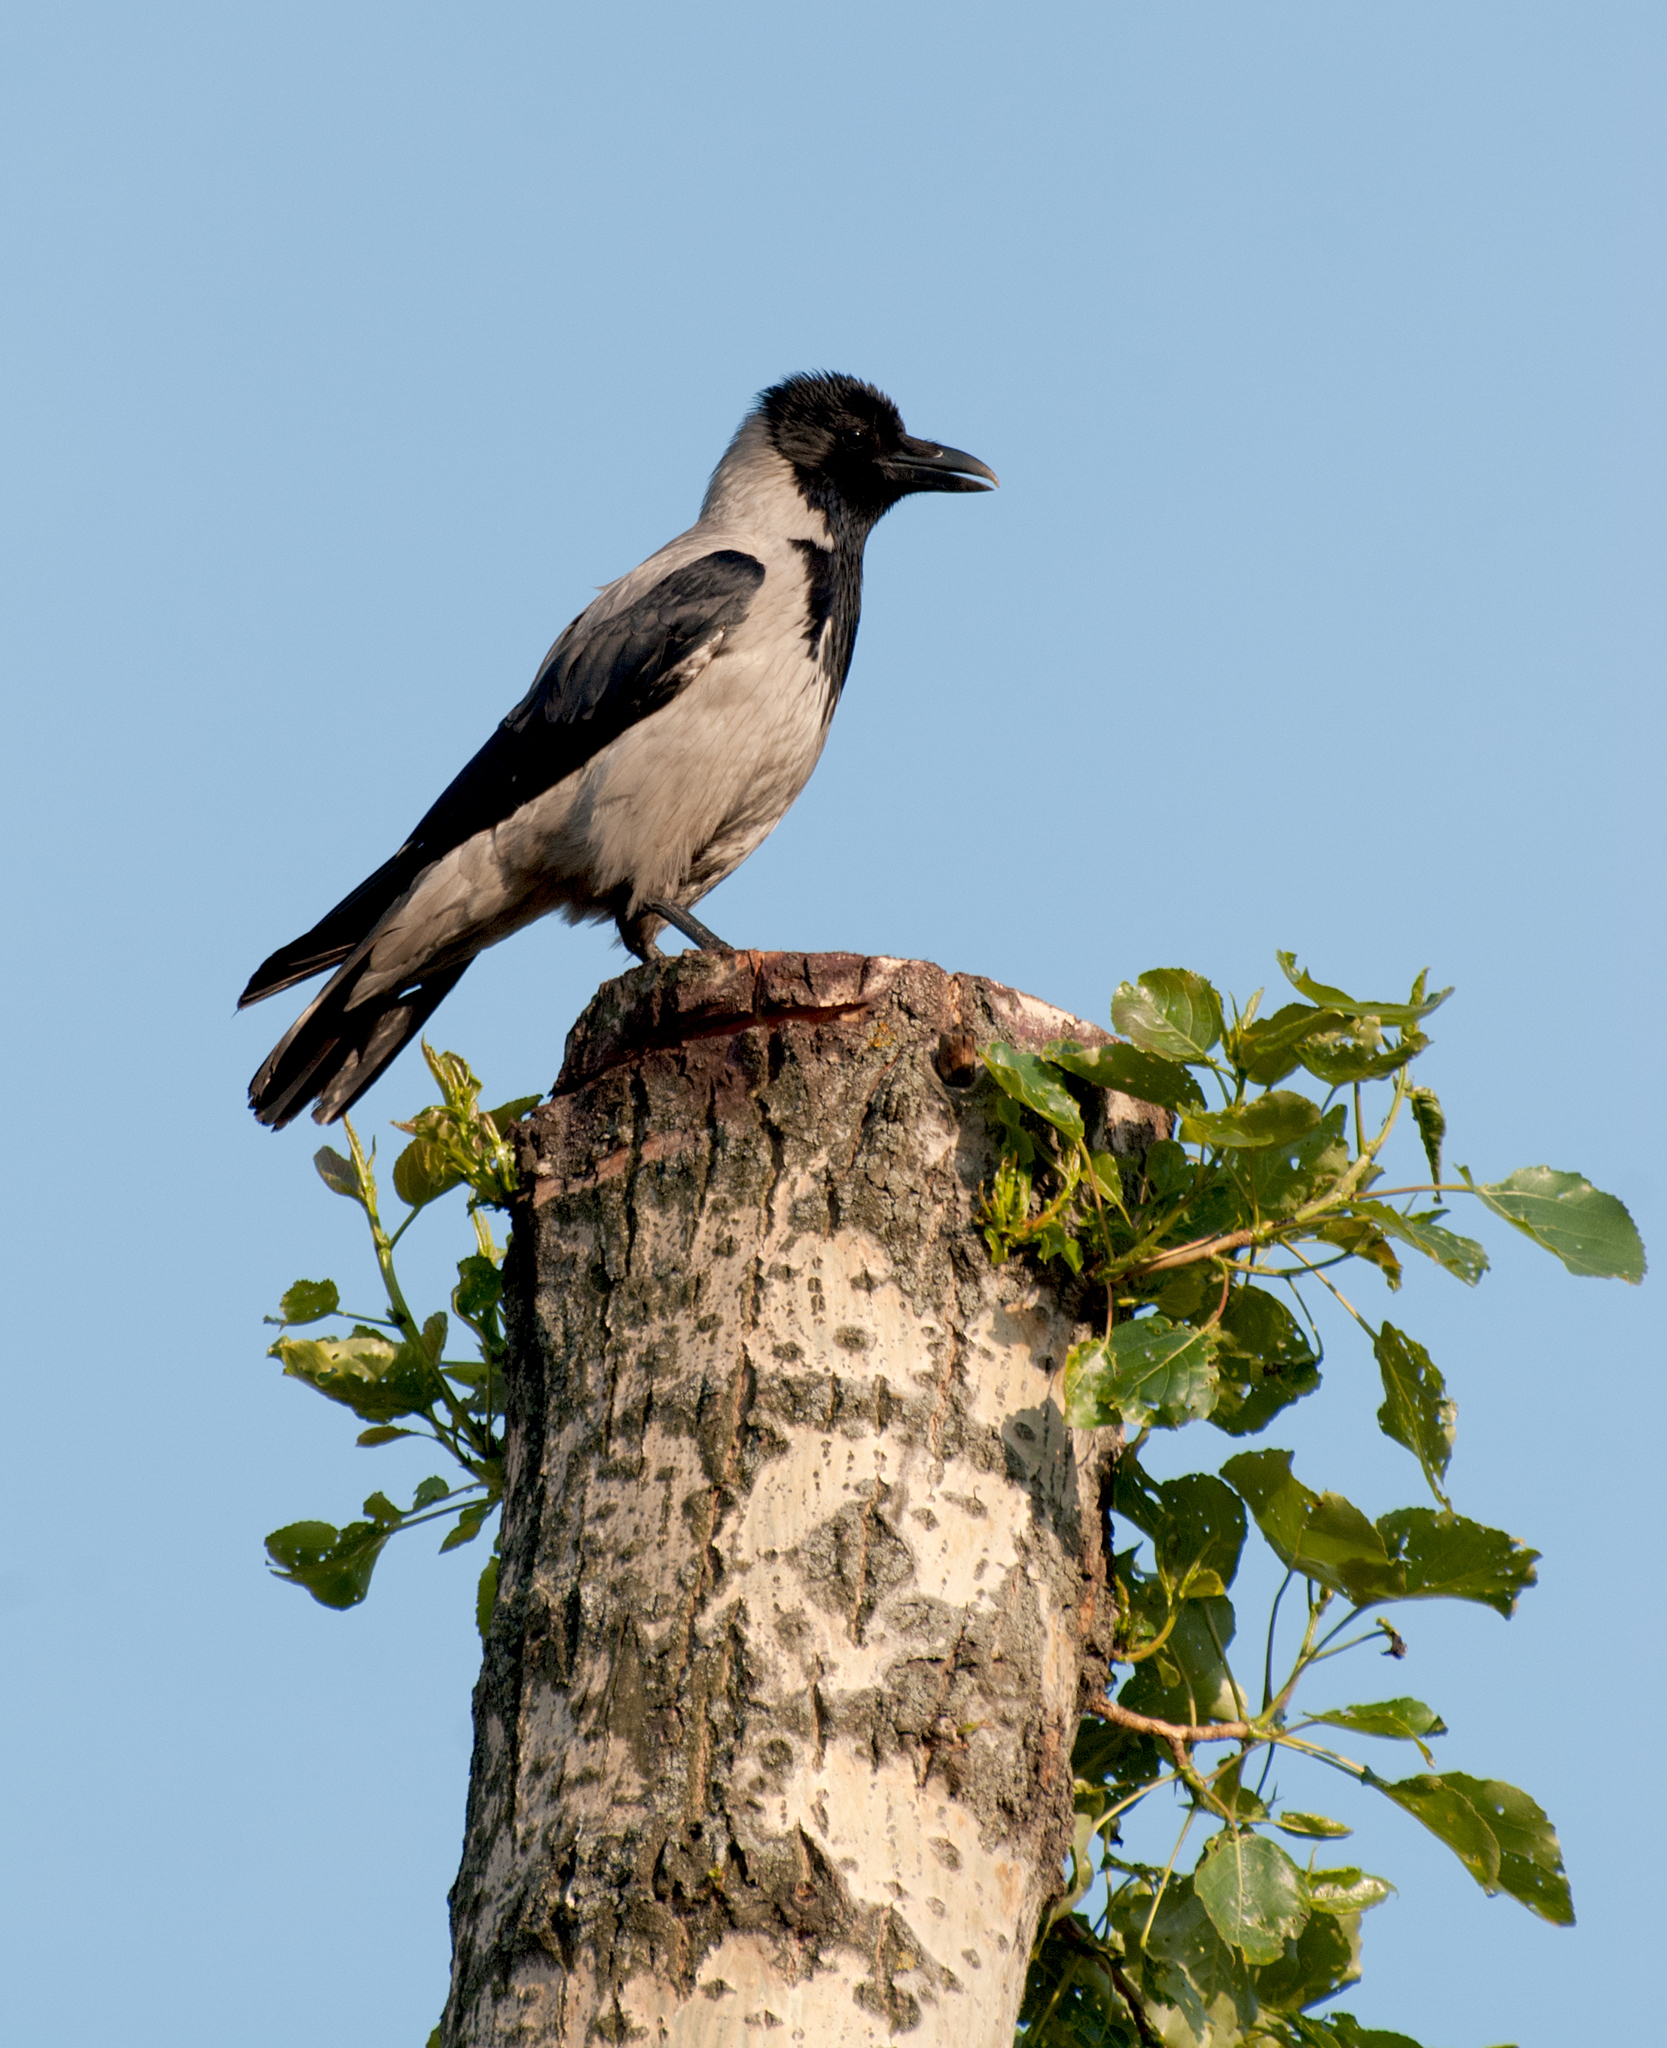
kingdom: Animalia
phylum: Chordata
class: Aves
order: Passeriformes
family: Corvidae
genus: Corvus
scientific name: Corvus cornix
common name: Hooded crow
